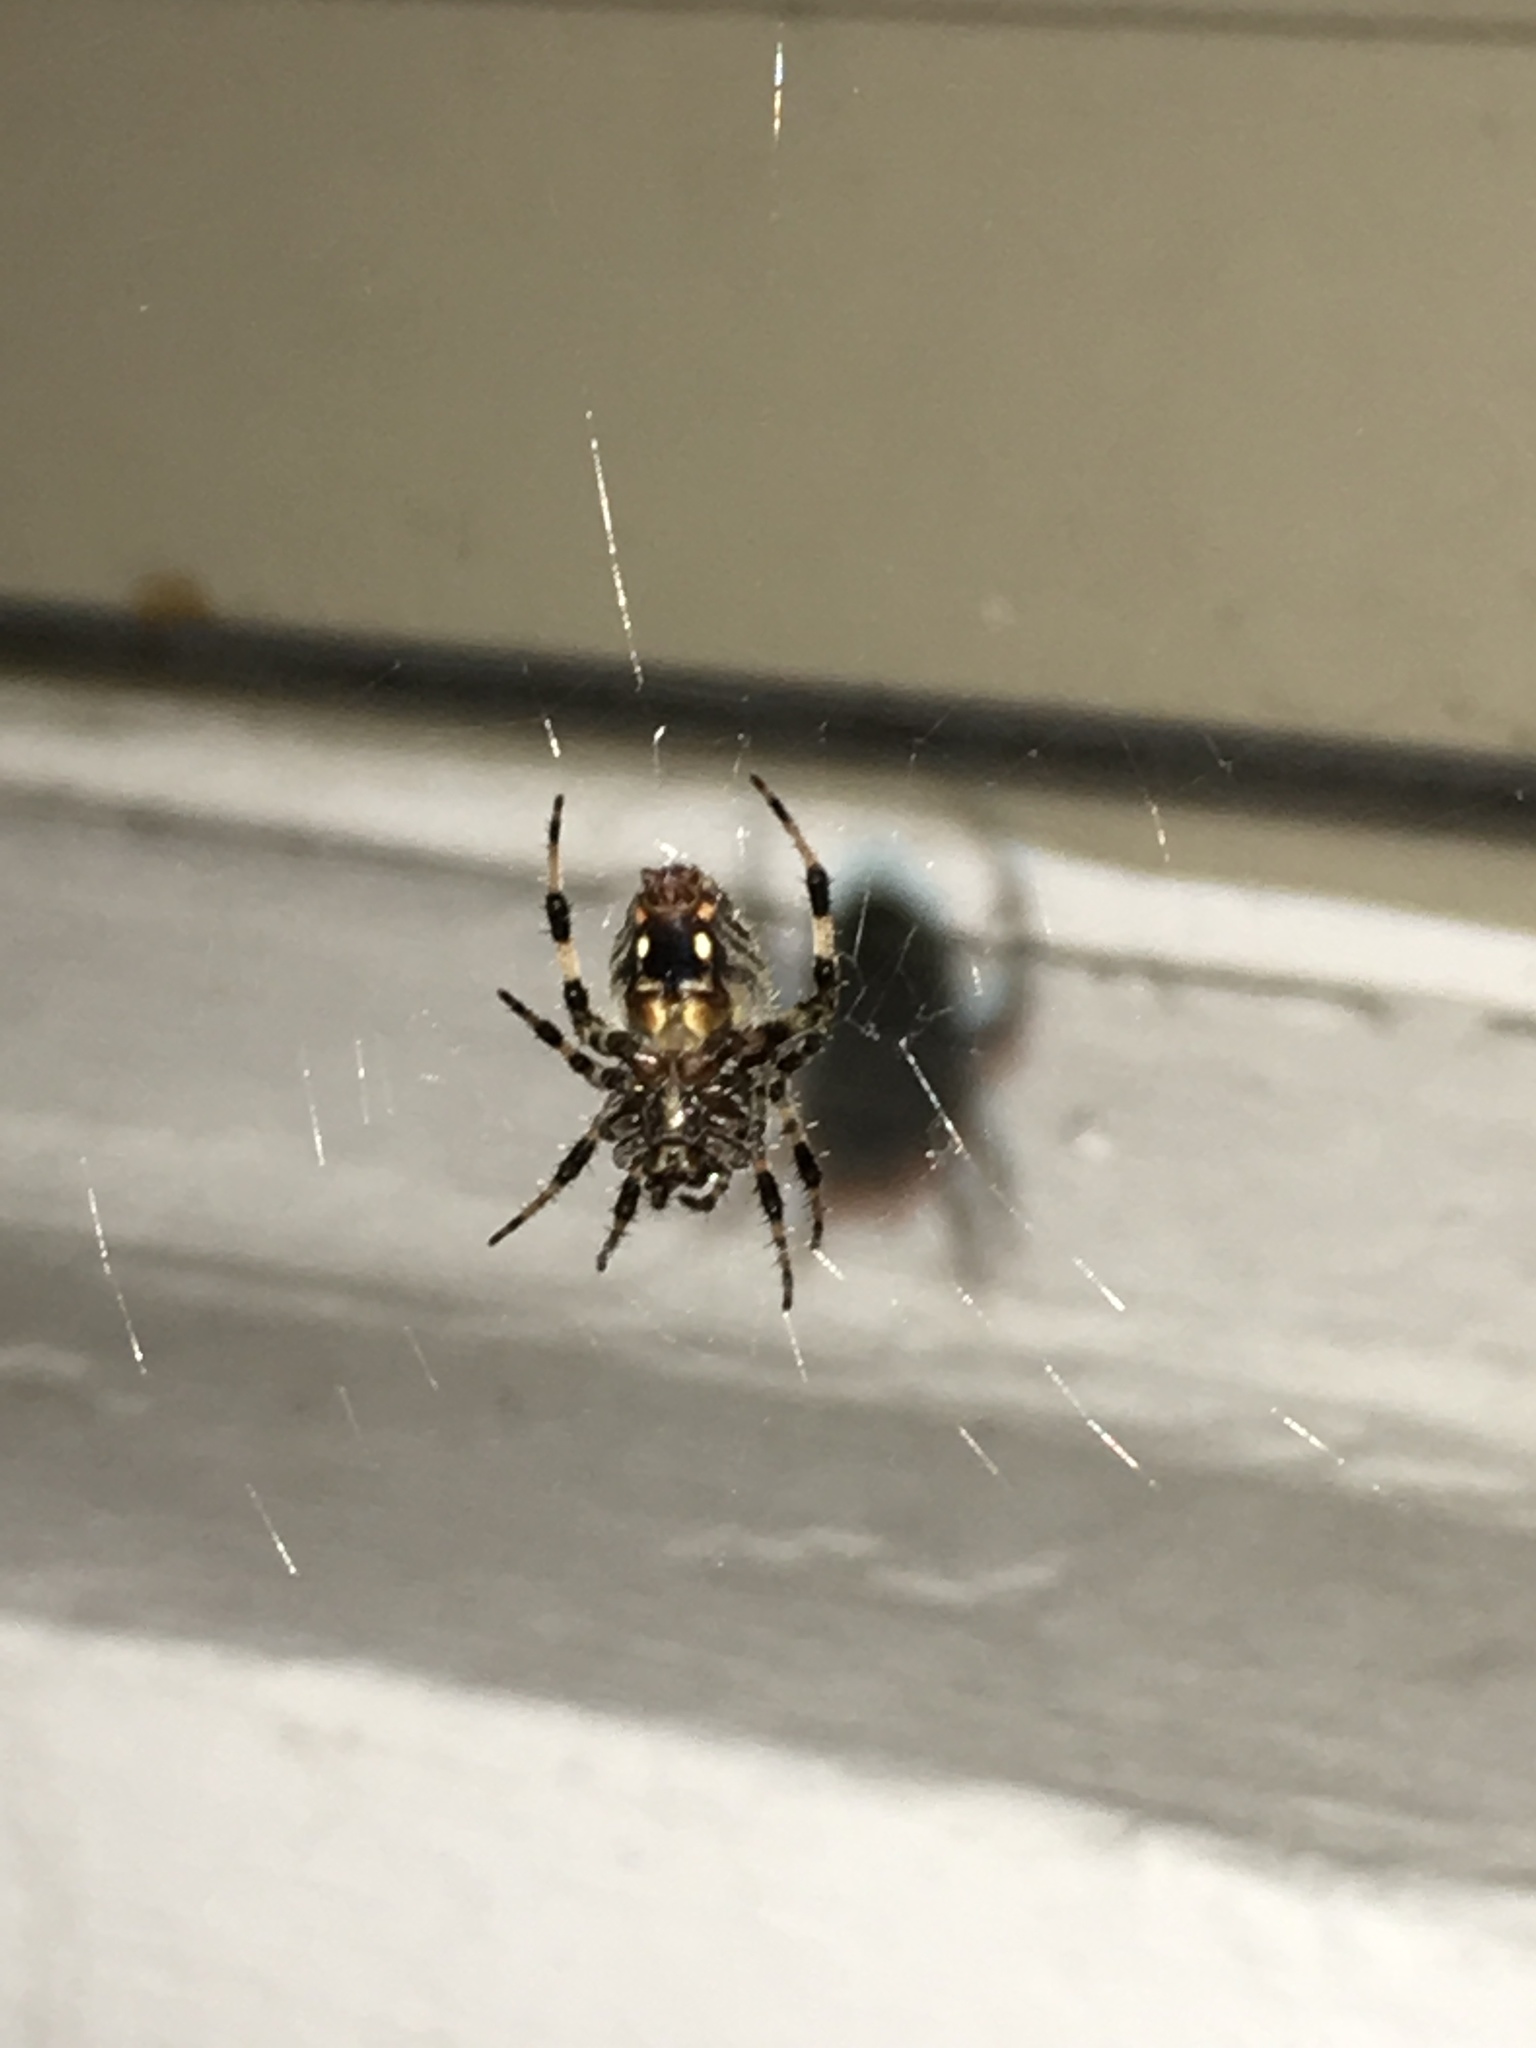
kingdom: Animalia
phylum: Arthropoda
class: Arachnida
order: Araneae
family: Araneidae
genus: Neoscona
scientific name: Neoscona crucifera
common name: Spotted orbweaver
